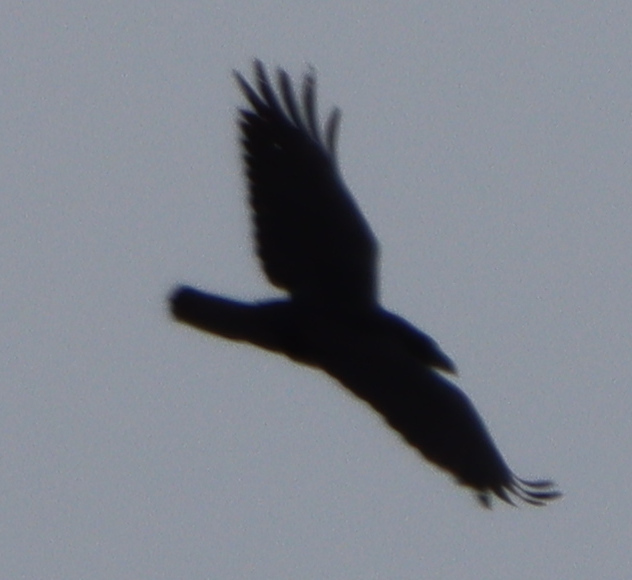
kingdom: Animalia
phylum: Chordata
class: Aves
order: Passeriformes
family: Corvidae
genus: Corvus
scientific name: Corvus corax
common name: Common raven
